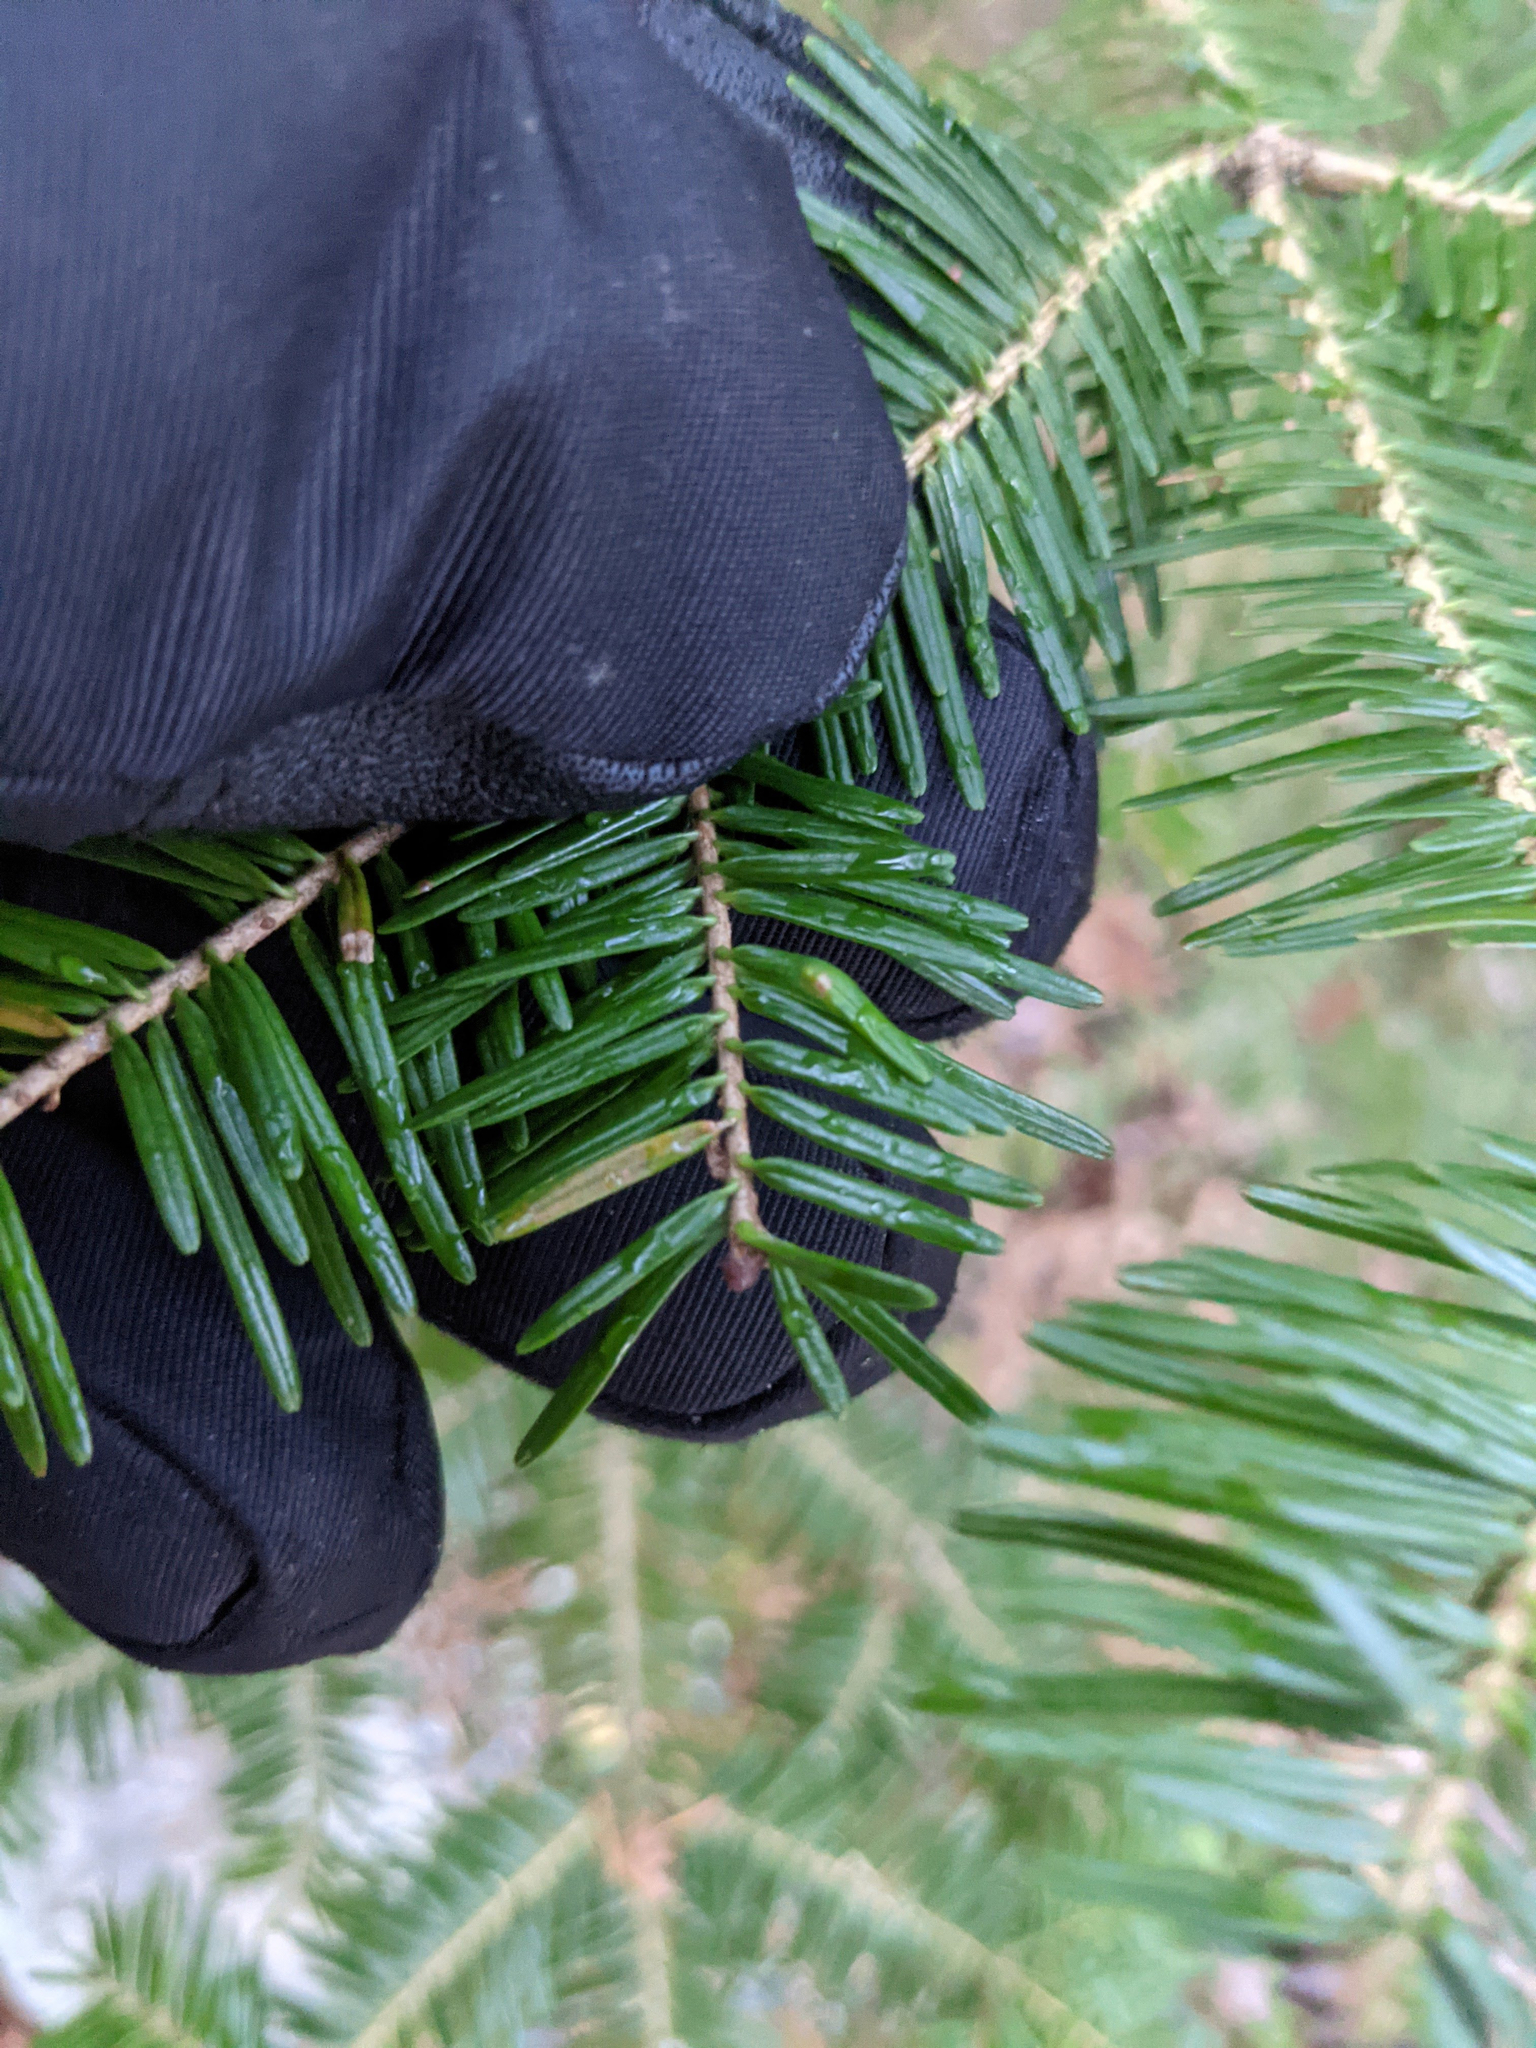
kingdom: Animalia
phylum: Arthropoda
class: Insecta
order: Diptera
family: Cecidomyiidae
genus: Paradiplosis
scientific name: Paradiplosis tumifex
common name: Gall midge
